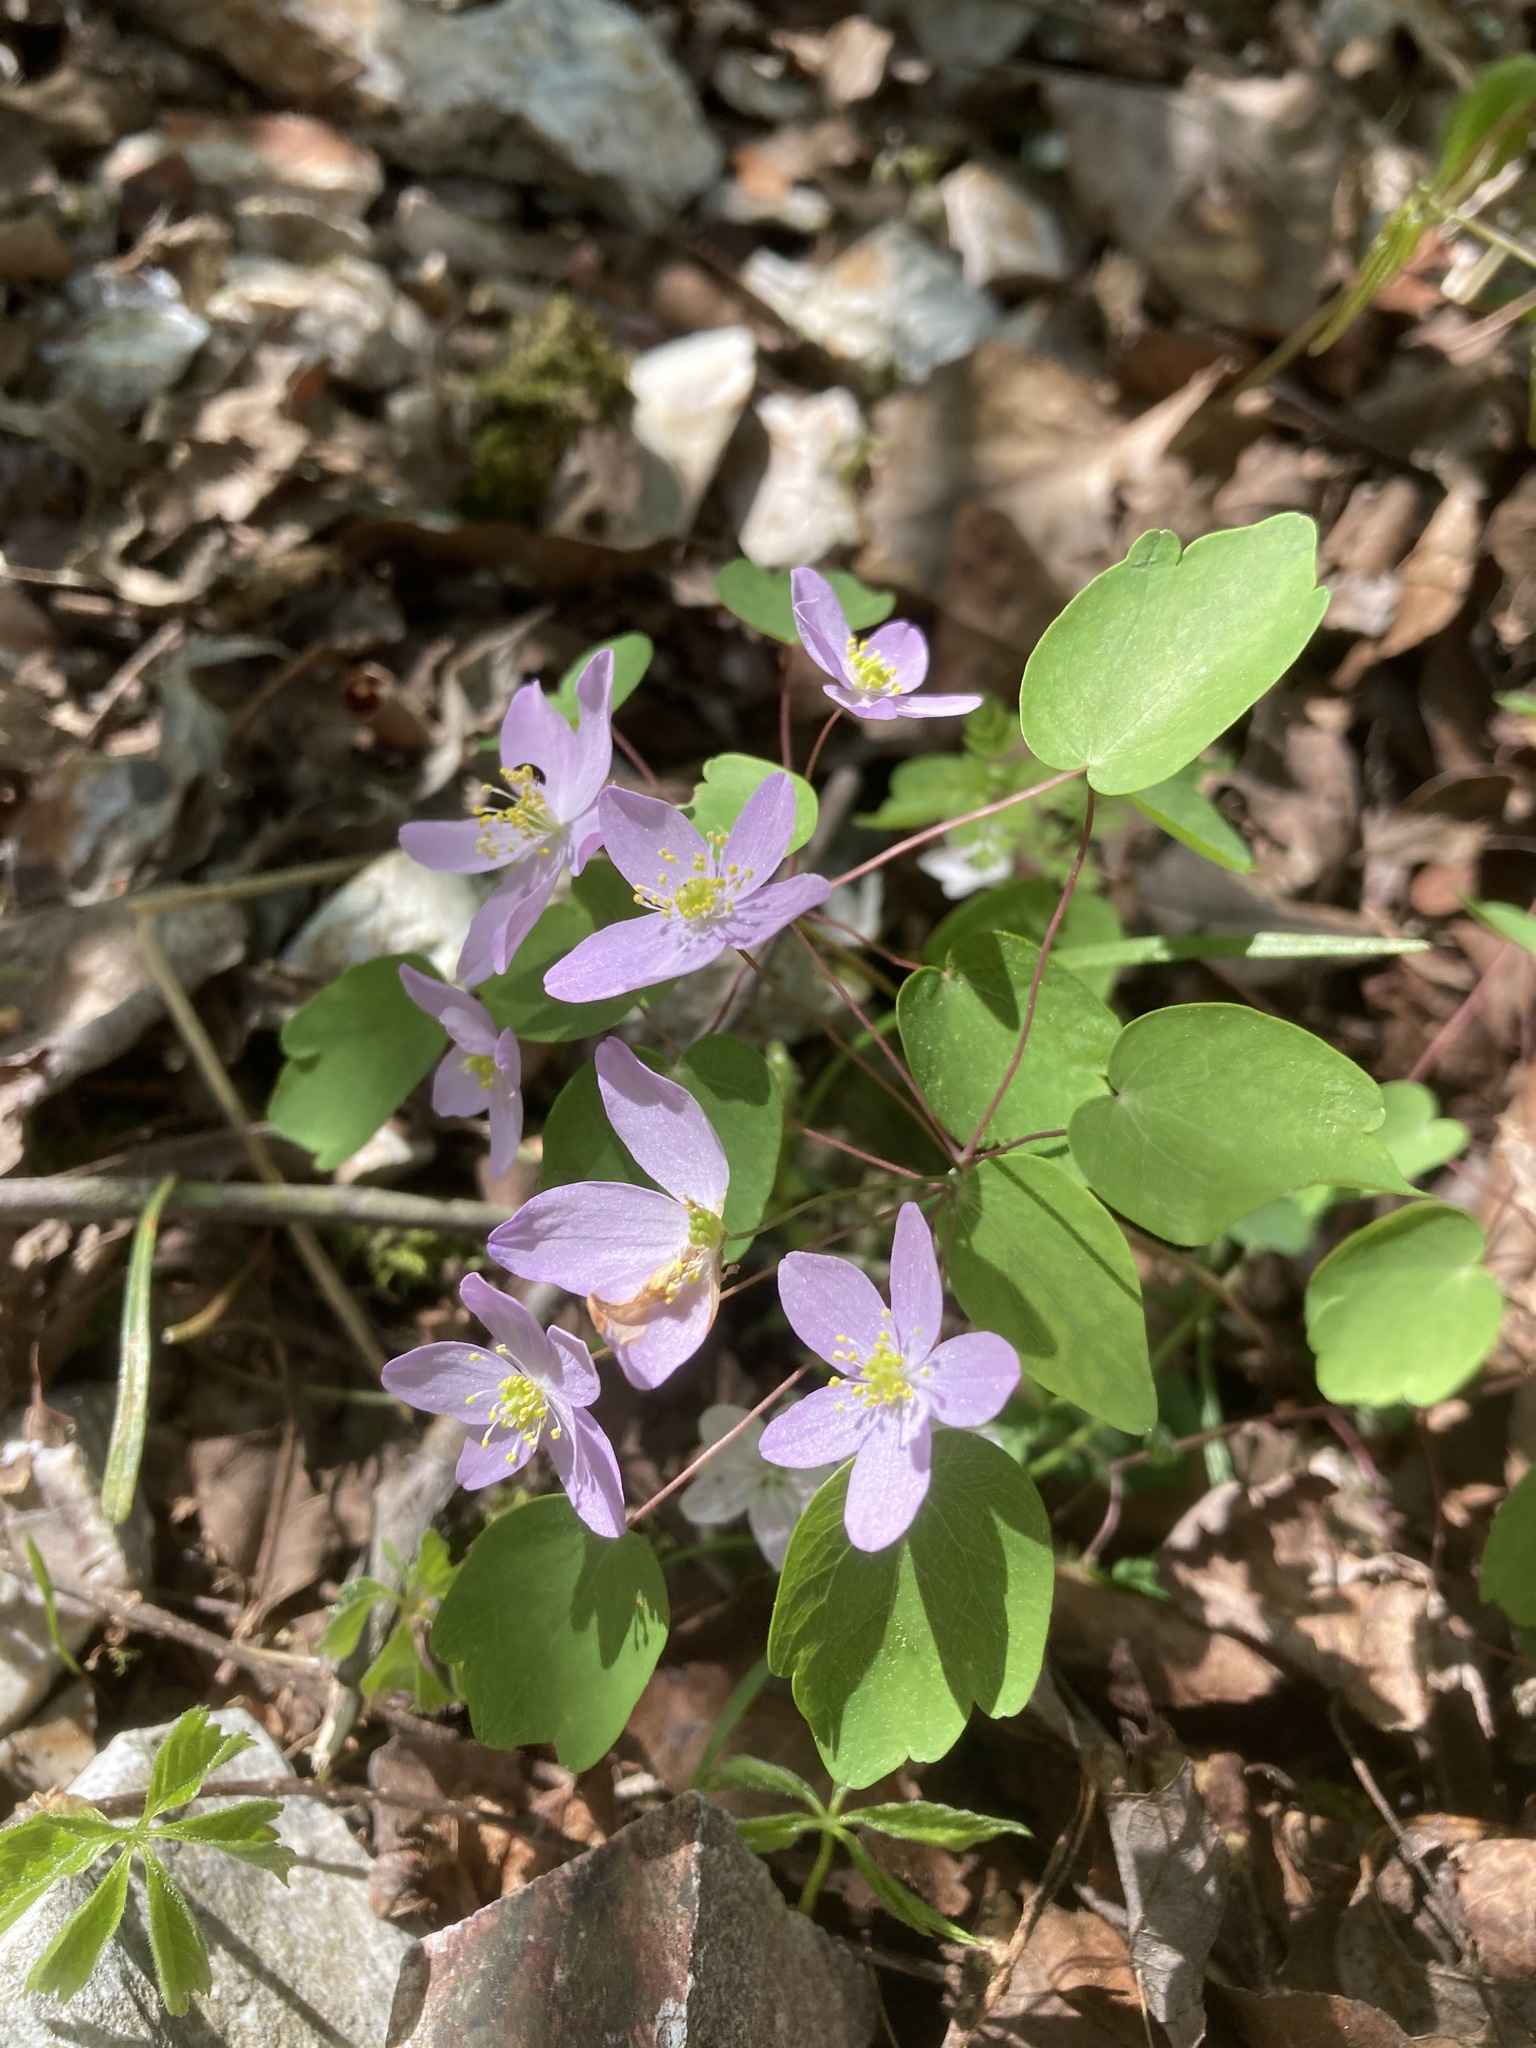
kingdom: Plantae
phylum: Tracheophyta
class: Magnoliopsida
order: Ranunculales
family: Ranunculaceae
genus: Thalictrum
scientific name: Thalictrum thalictroides
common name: Rue-anemone
